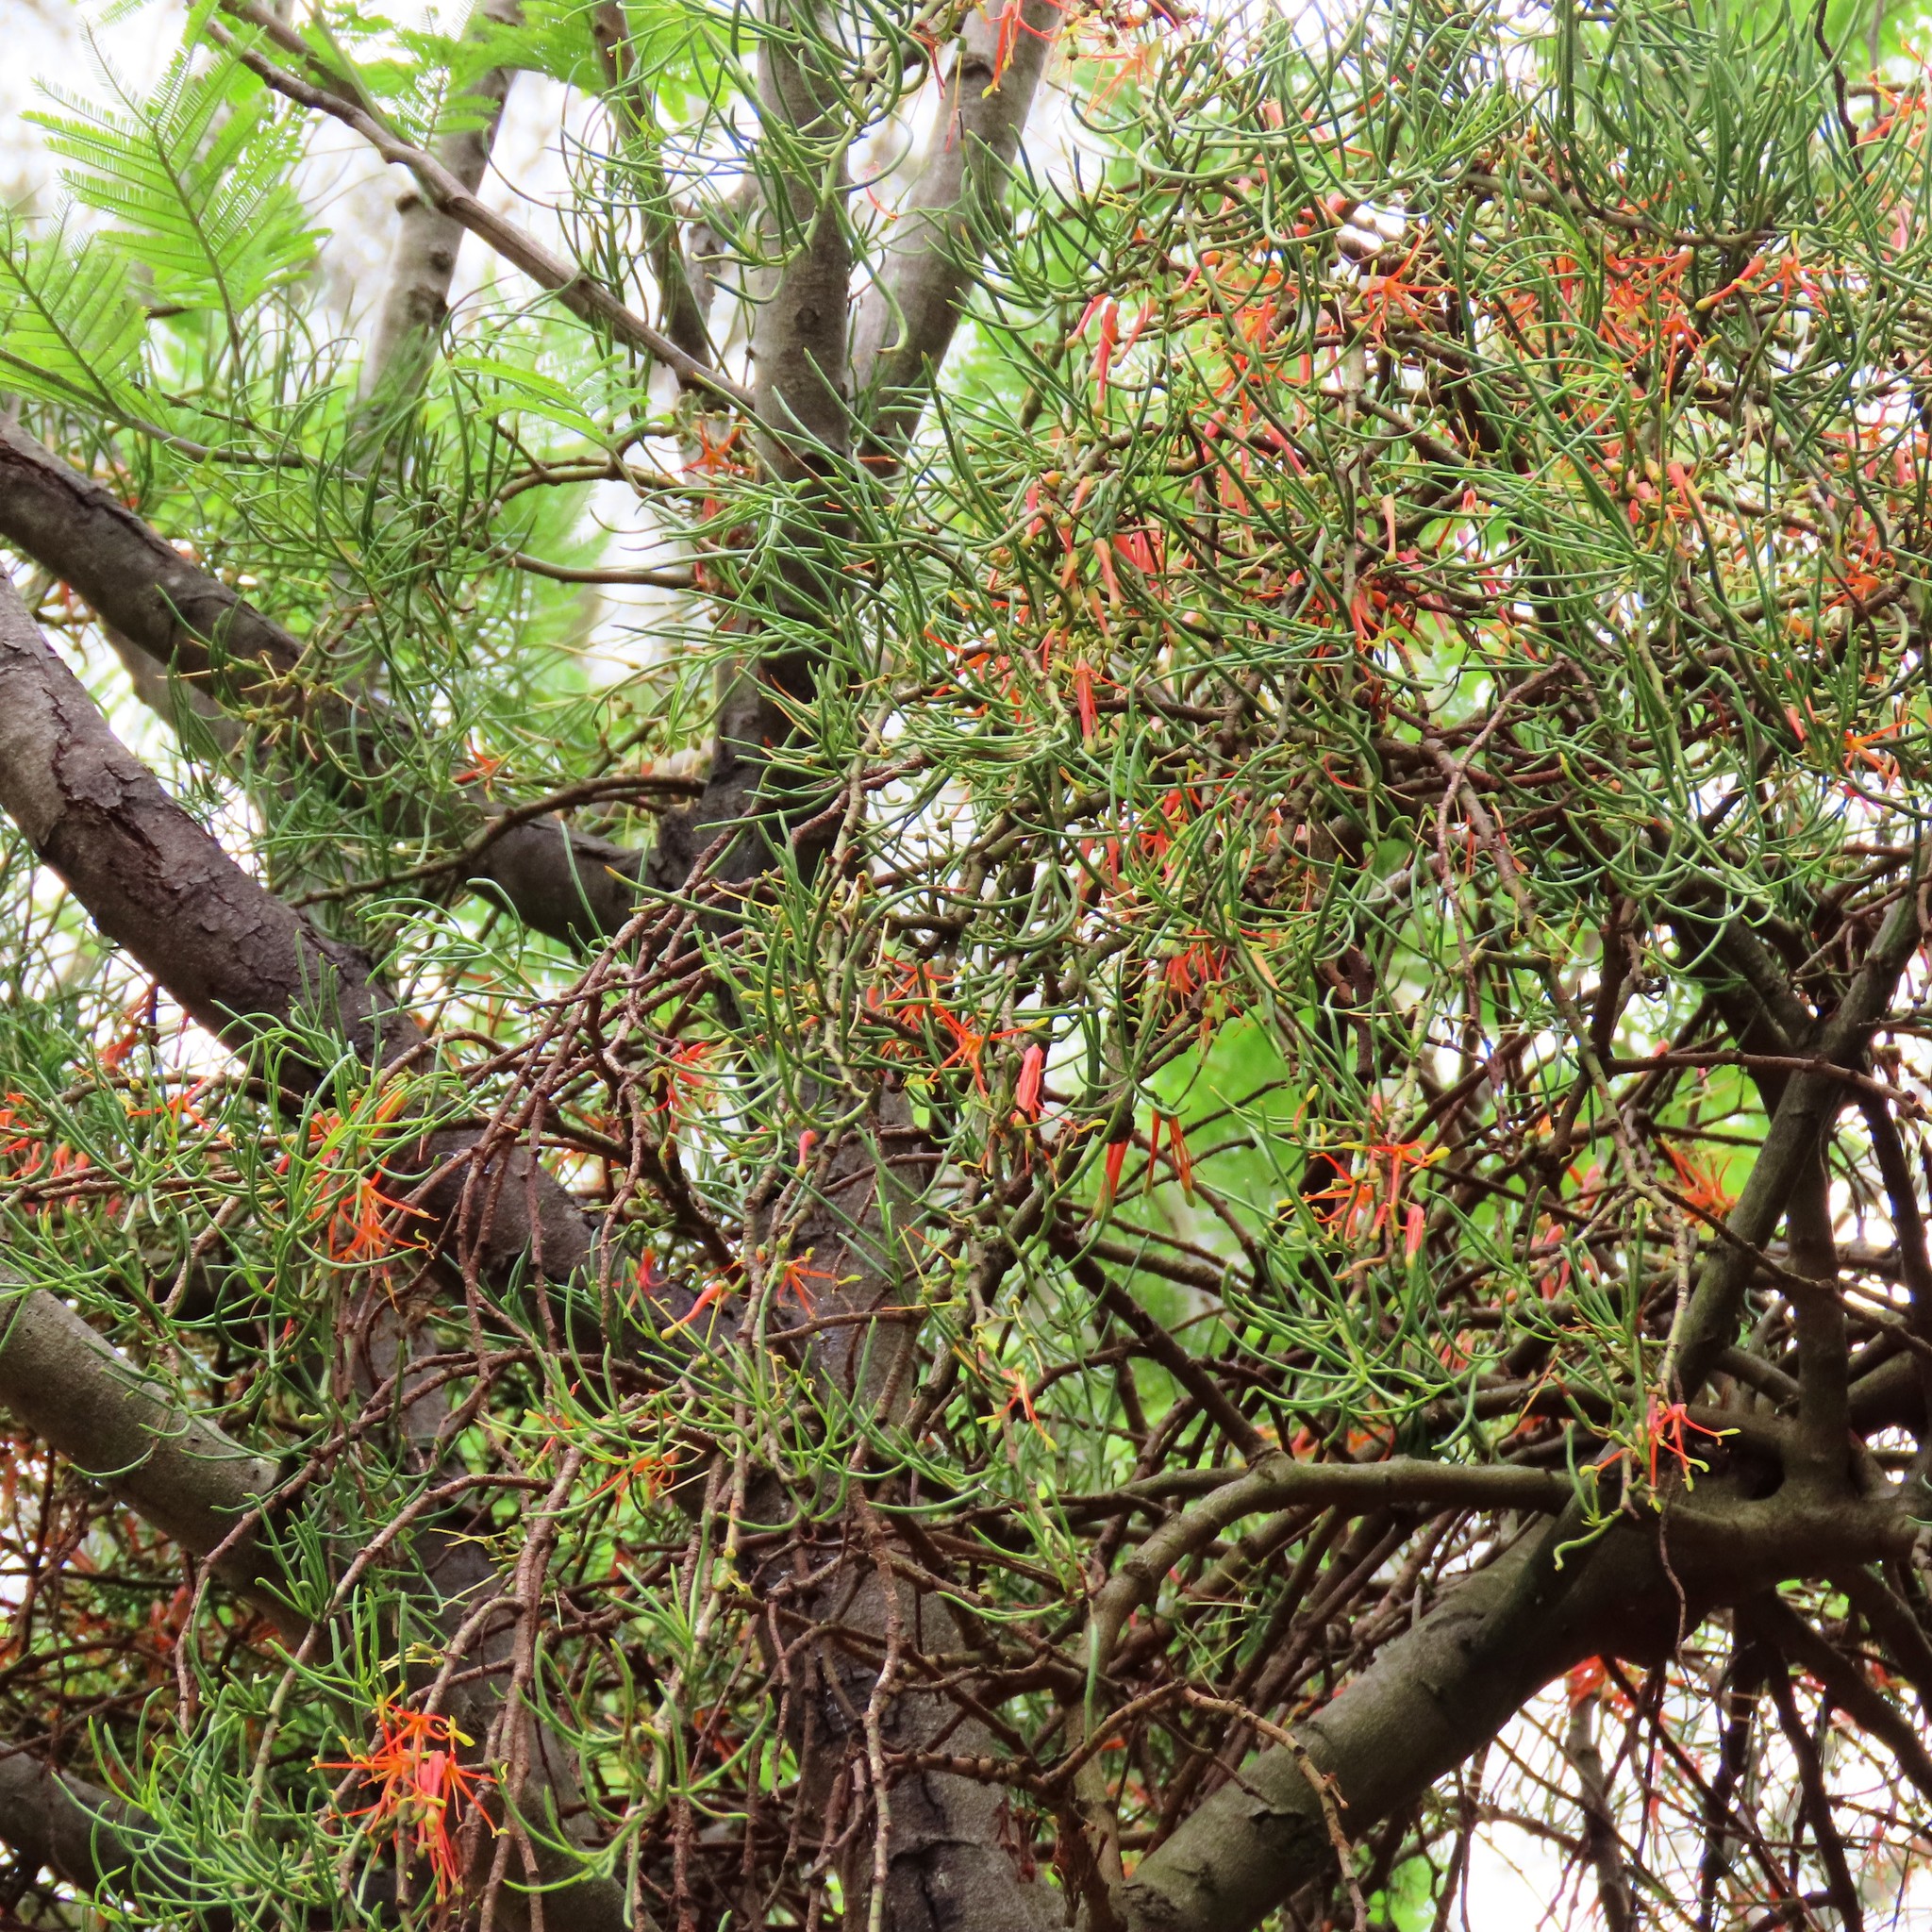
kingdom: Plantae
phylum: Tracheophyta
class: Magnoliopsida
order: Santalales
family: Loranthaceae
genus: Amyema
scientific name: Amyema preissii
